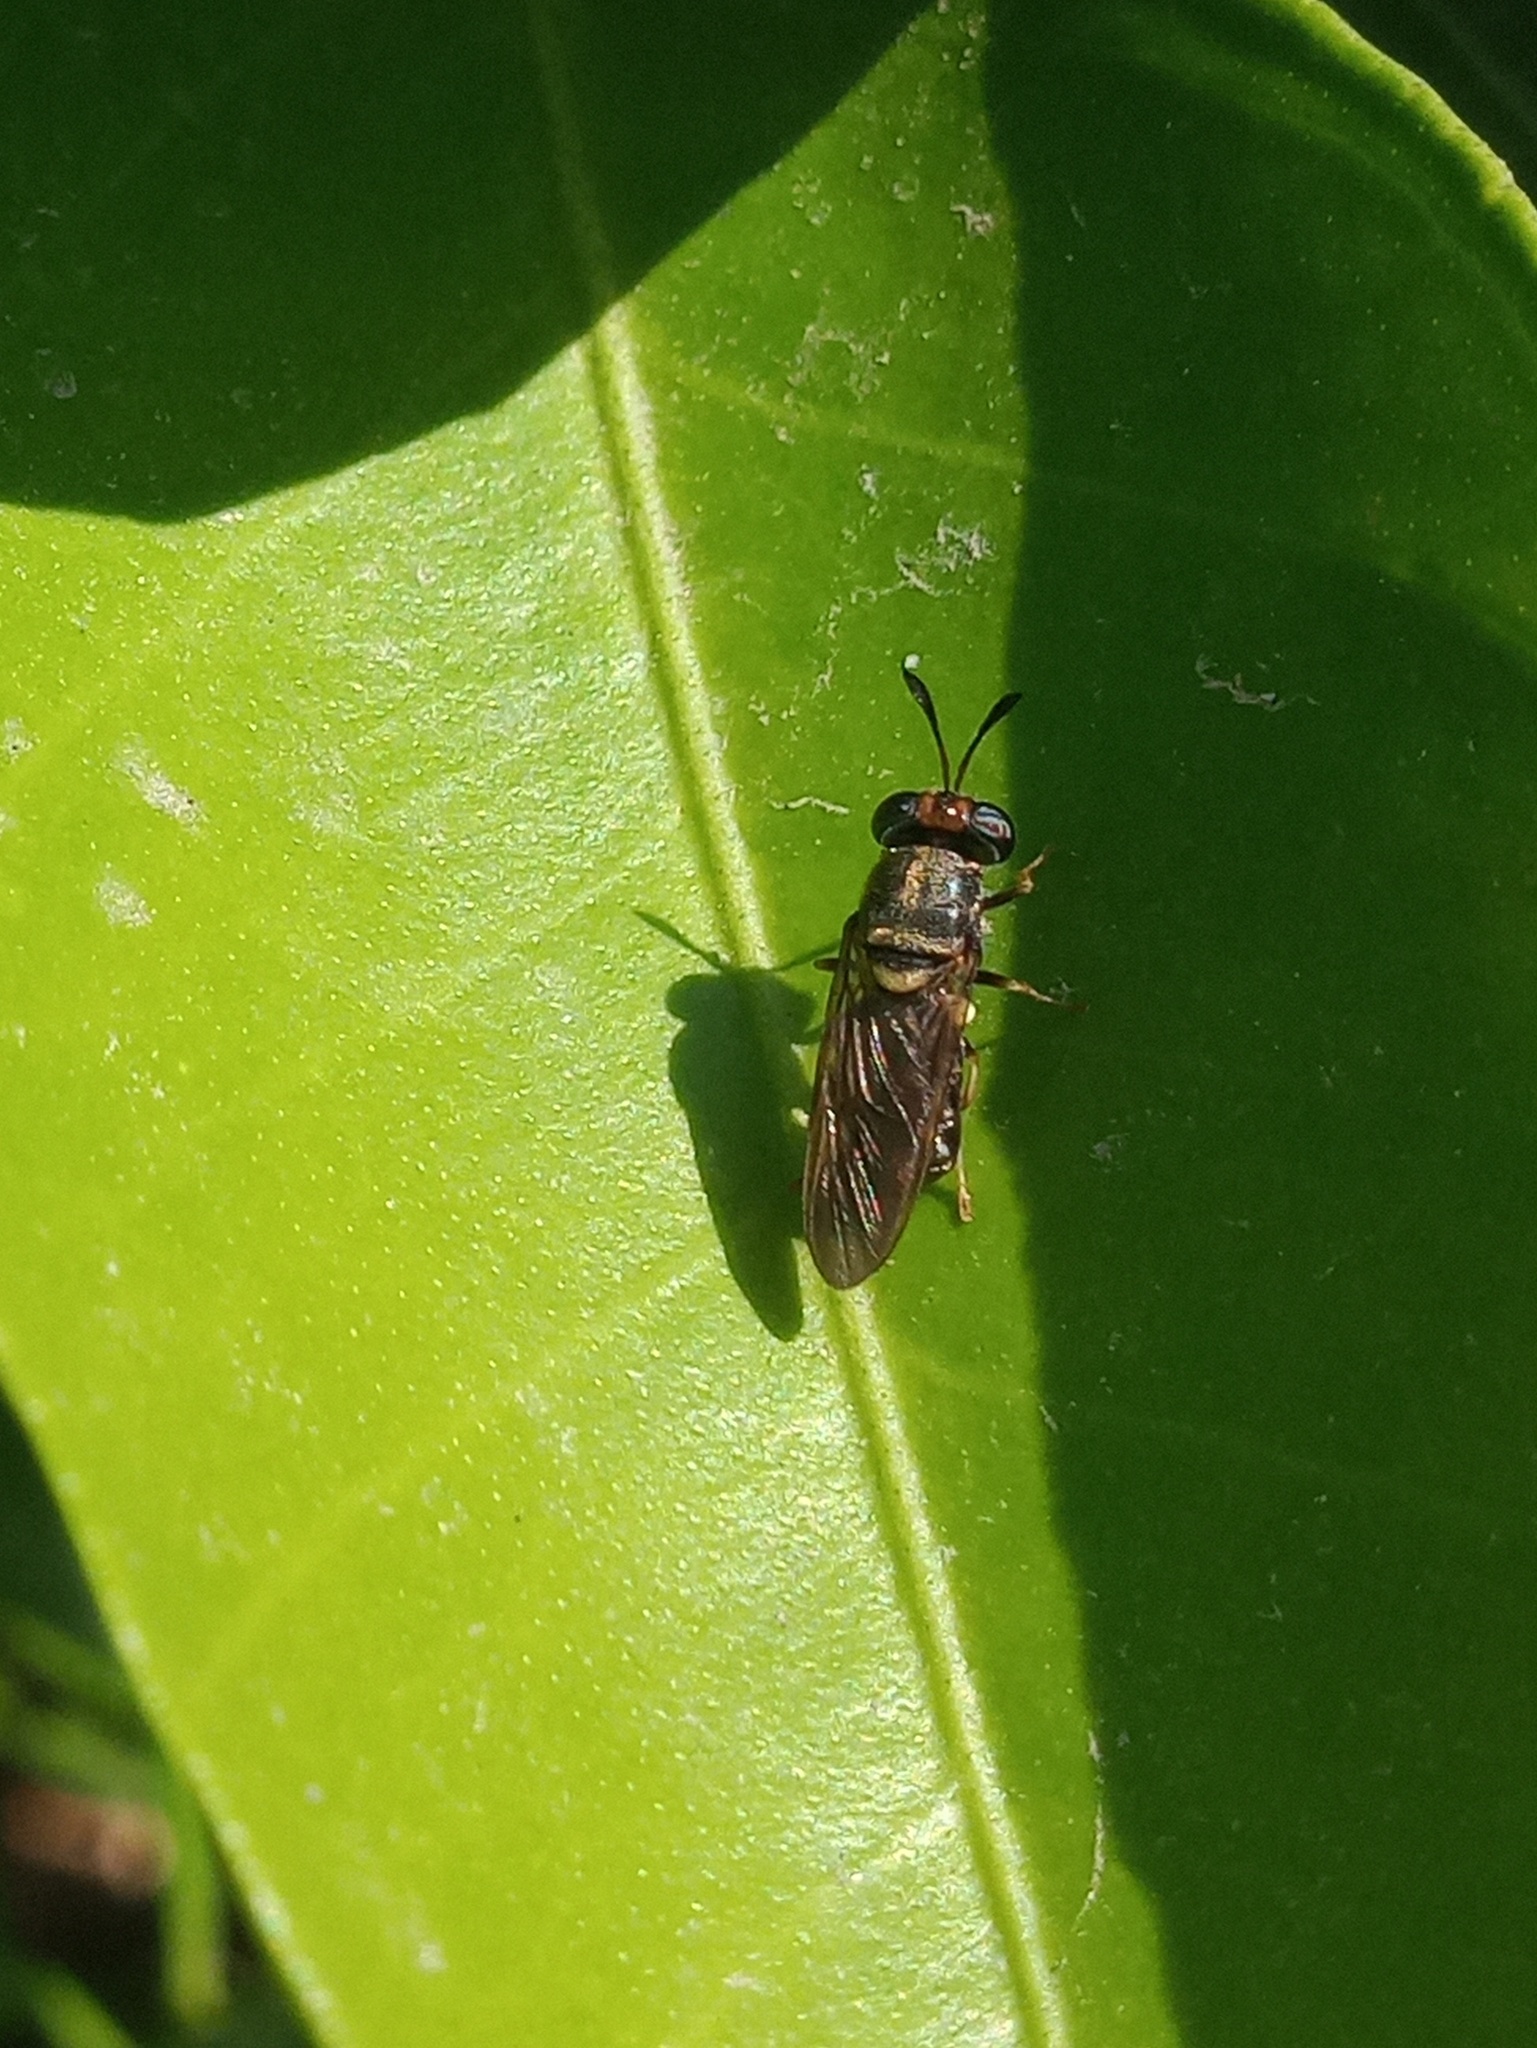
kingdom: Animalia
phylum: Arthropoda
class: Insecta
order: Diptera
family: Stratiomyidae
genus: Hermetia
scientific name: Hermetia chrysopila
